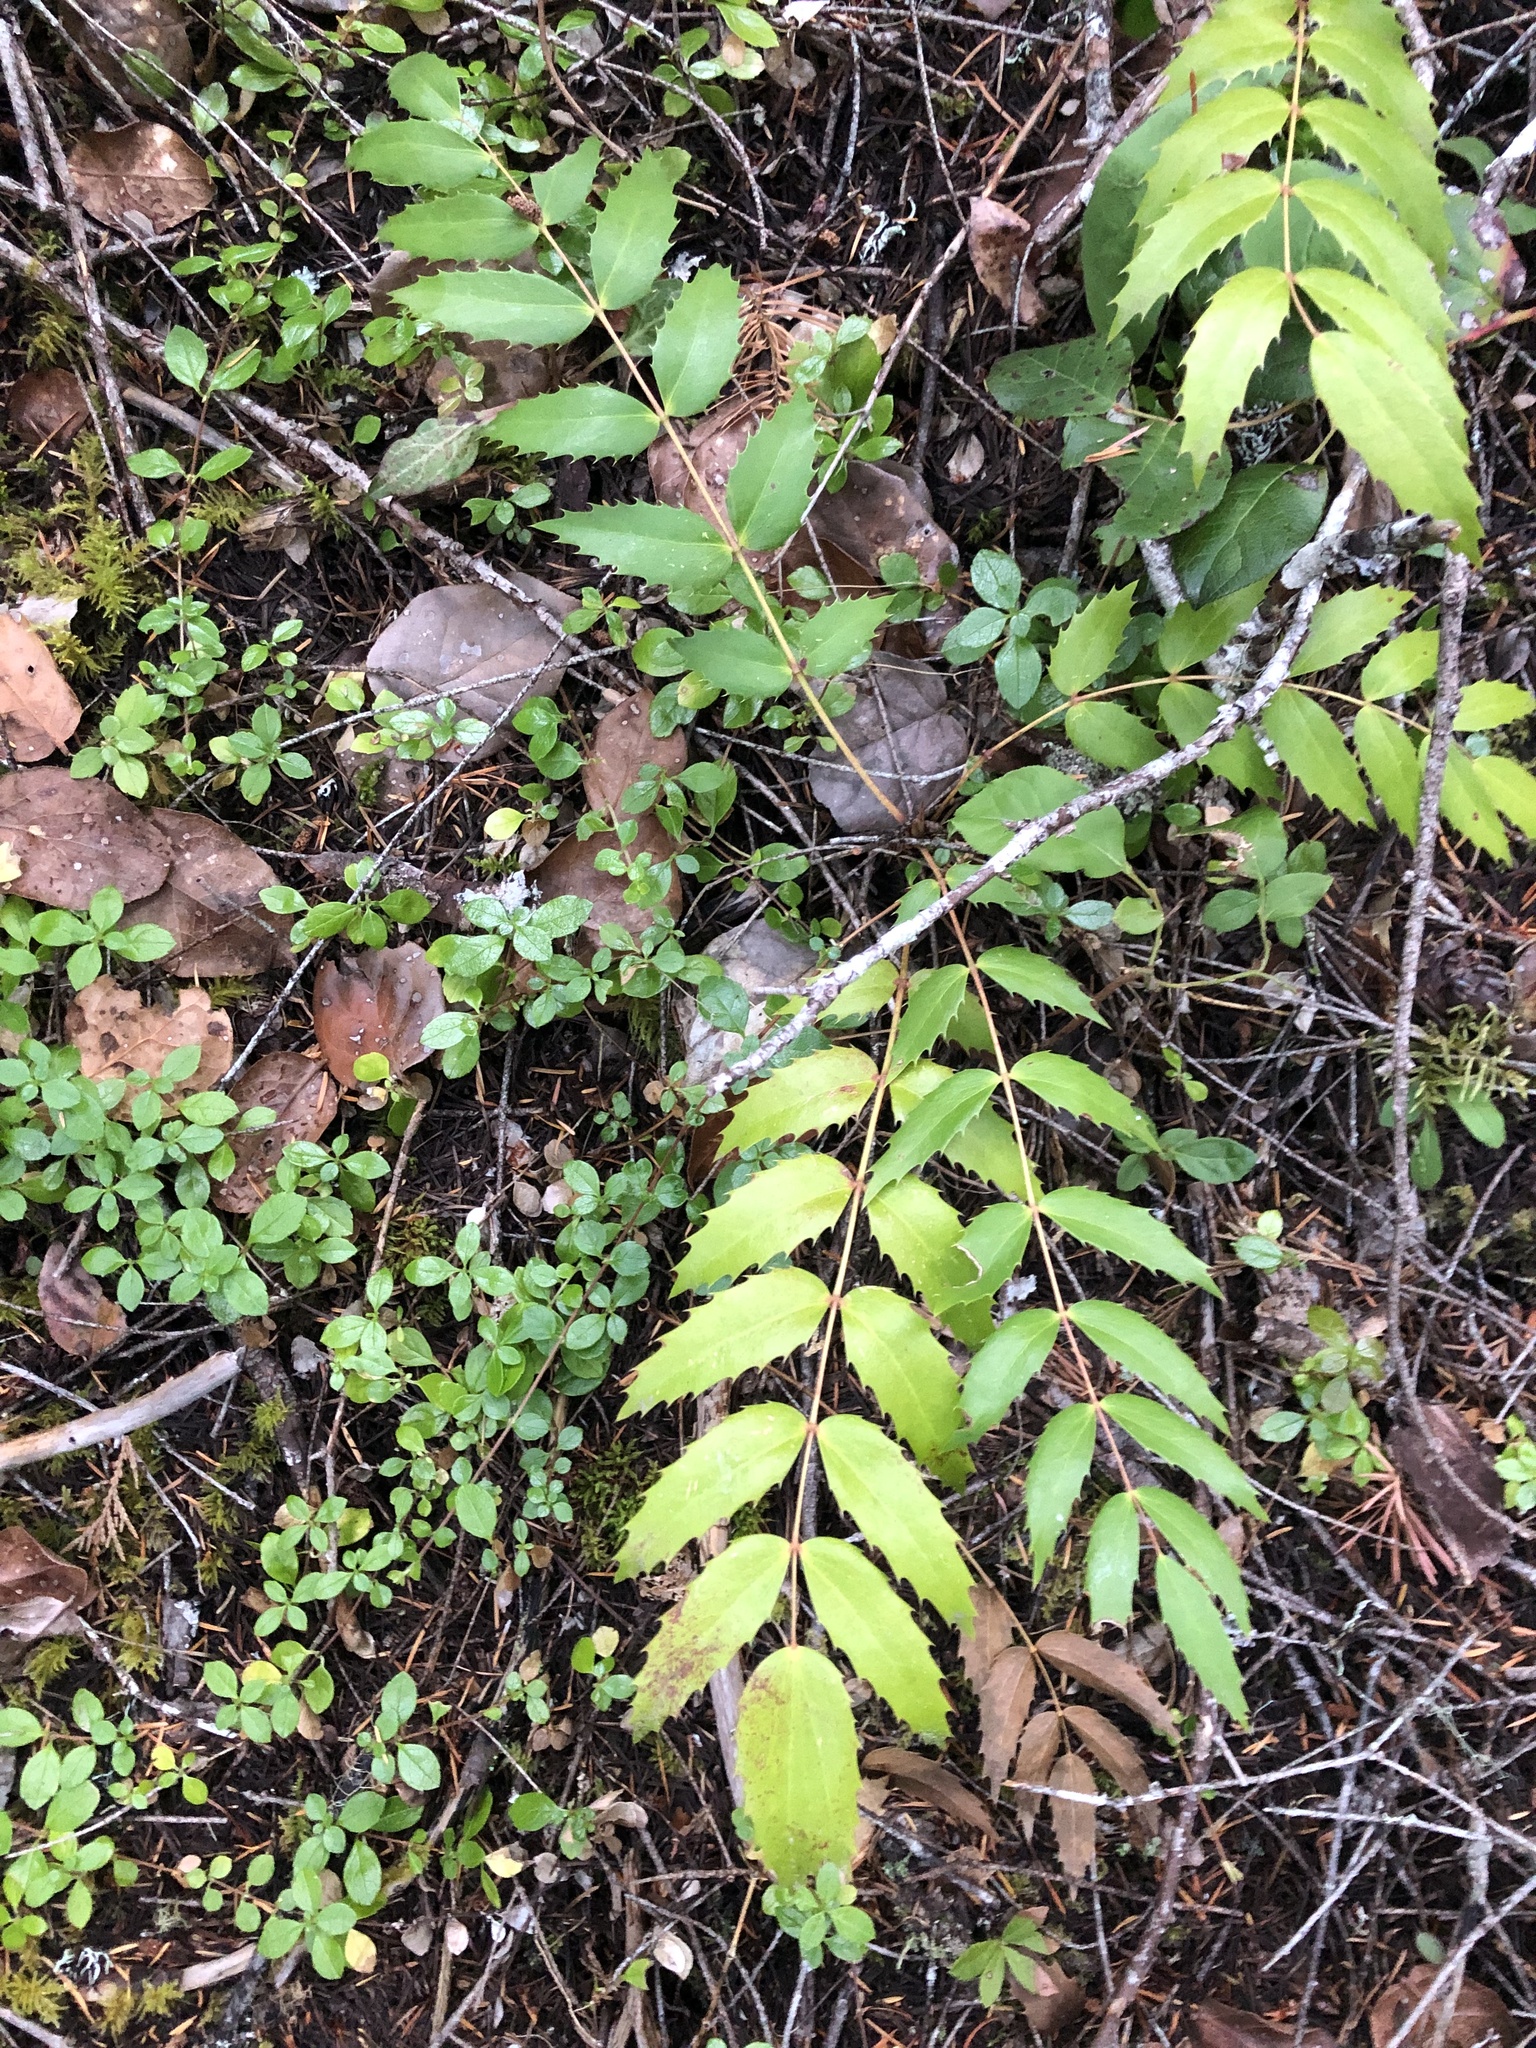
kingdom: Plantae
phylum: Tracheophyta
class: Magnoliopsida
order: Ranunculales
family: Berberidaceae
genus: Mahonia
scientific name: Mahonia nervosa
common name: Cascade oregon-grape
